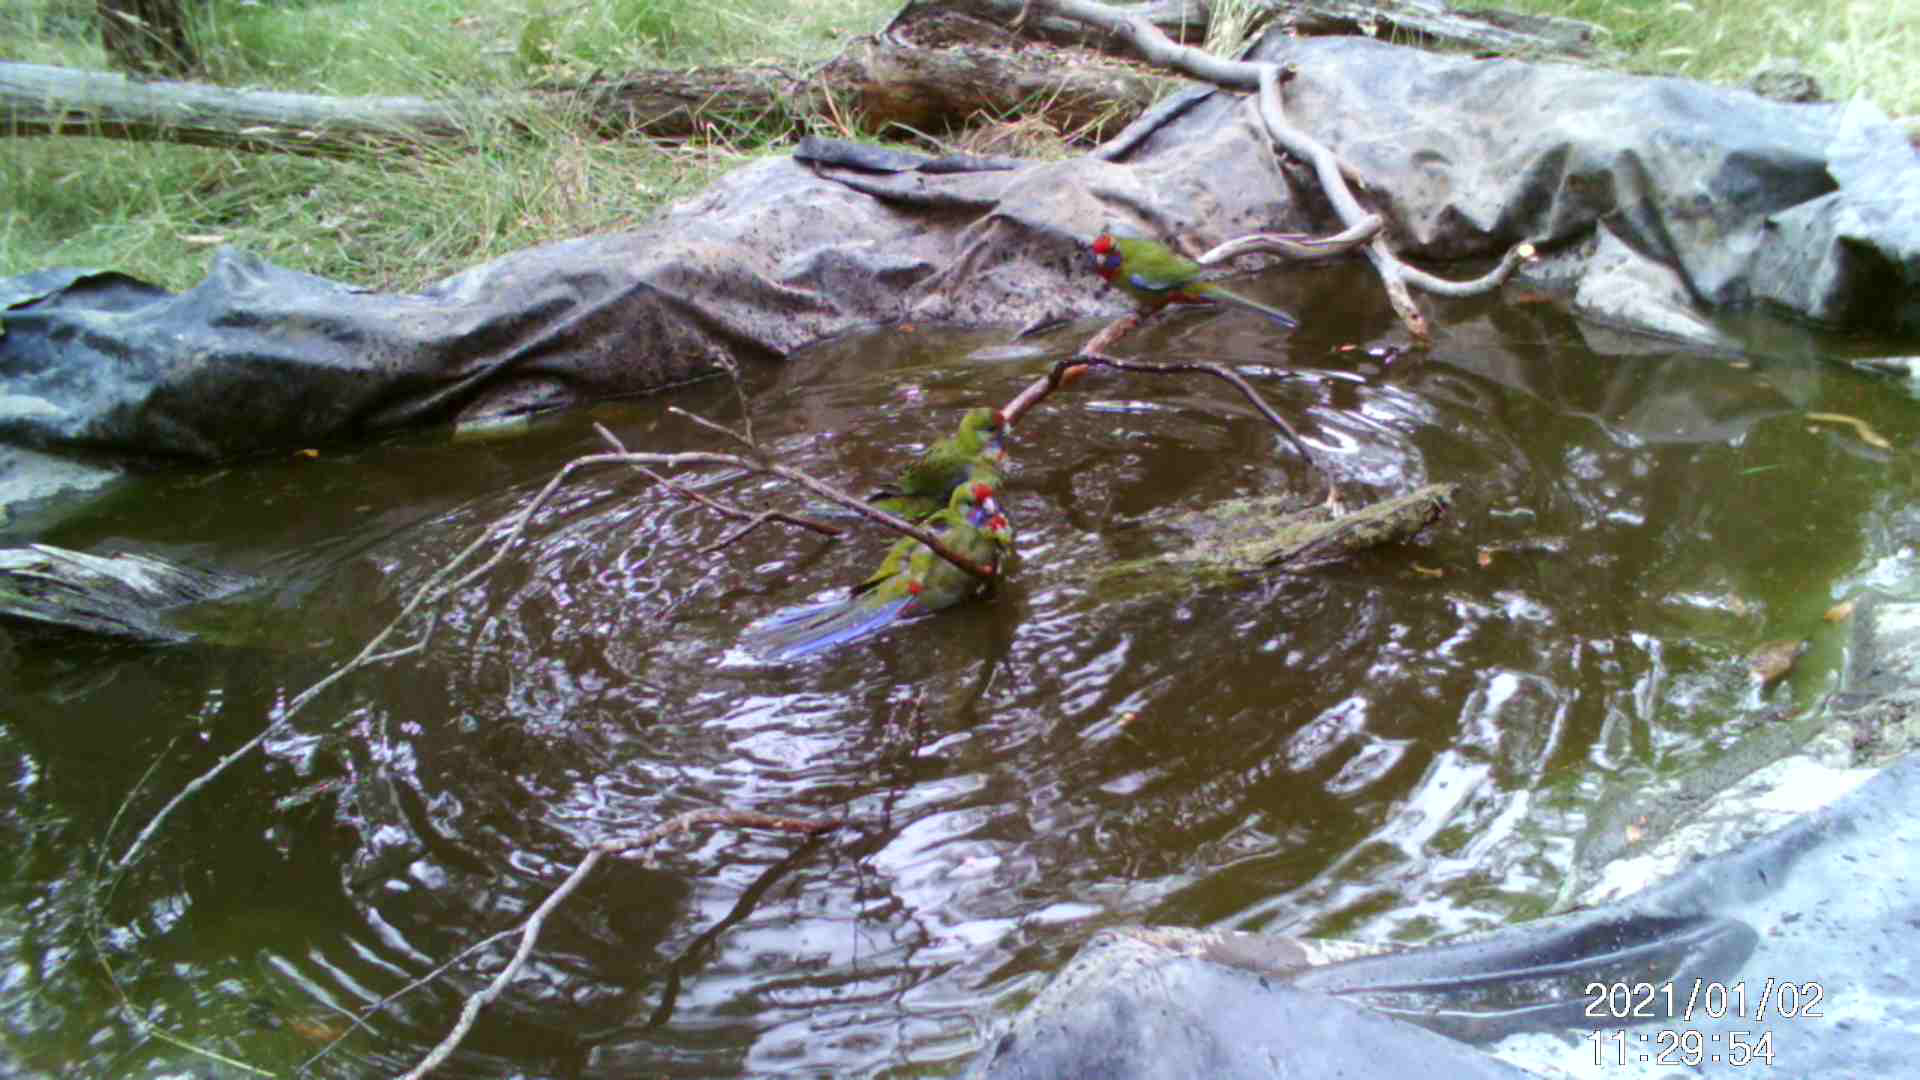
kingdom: Animalia
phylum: Chordata
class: Aves
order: Psittaciformes
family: Psittacidae
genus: Platycercus
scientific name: Platycercus elegans
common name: Crimson rosella
